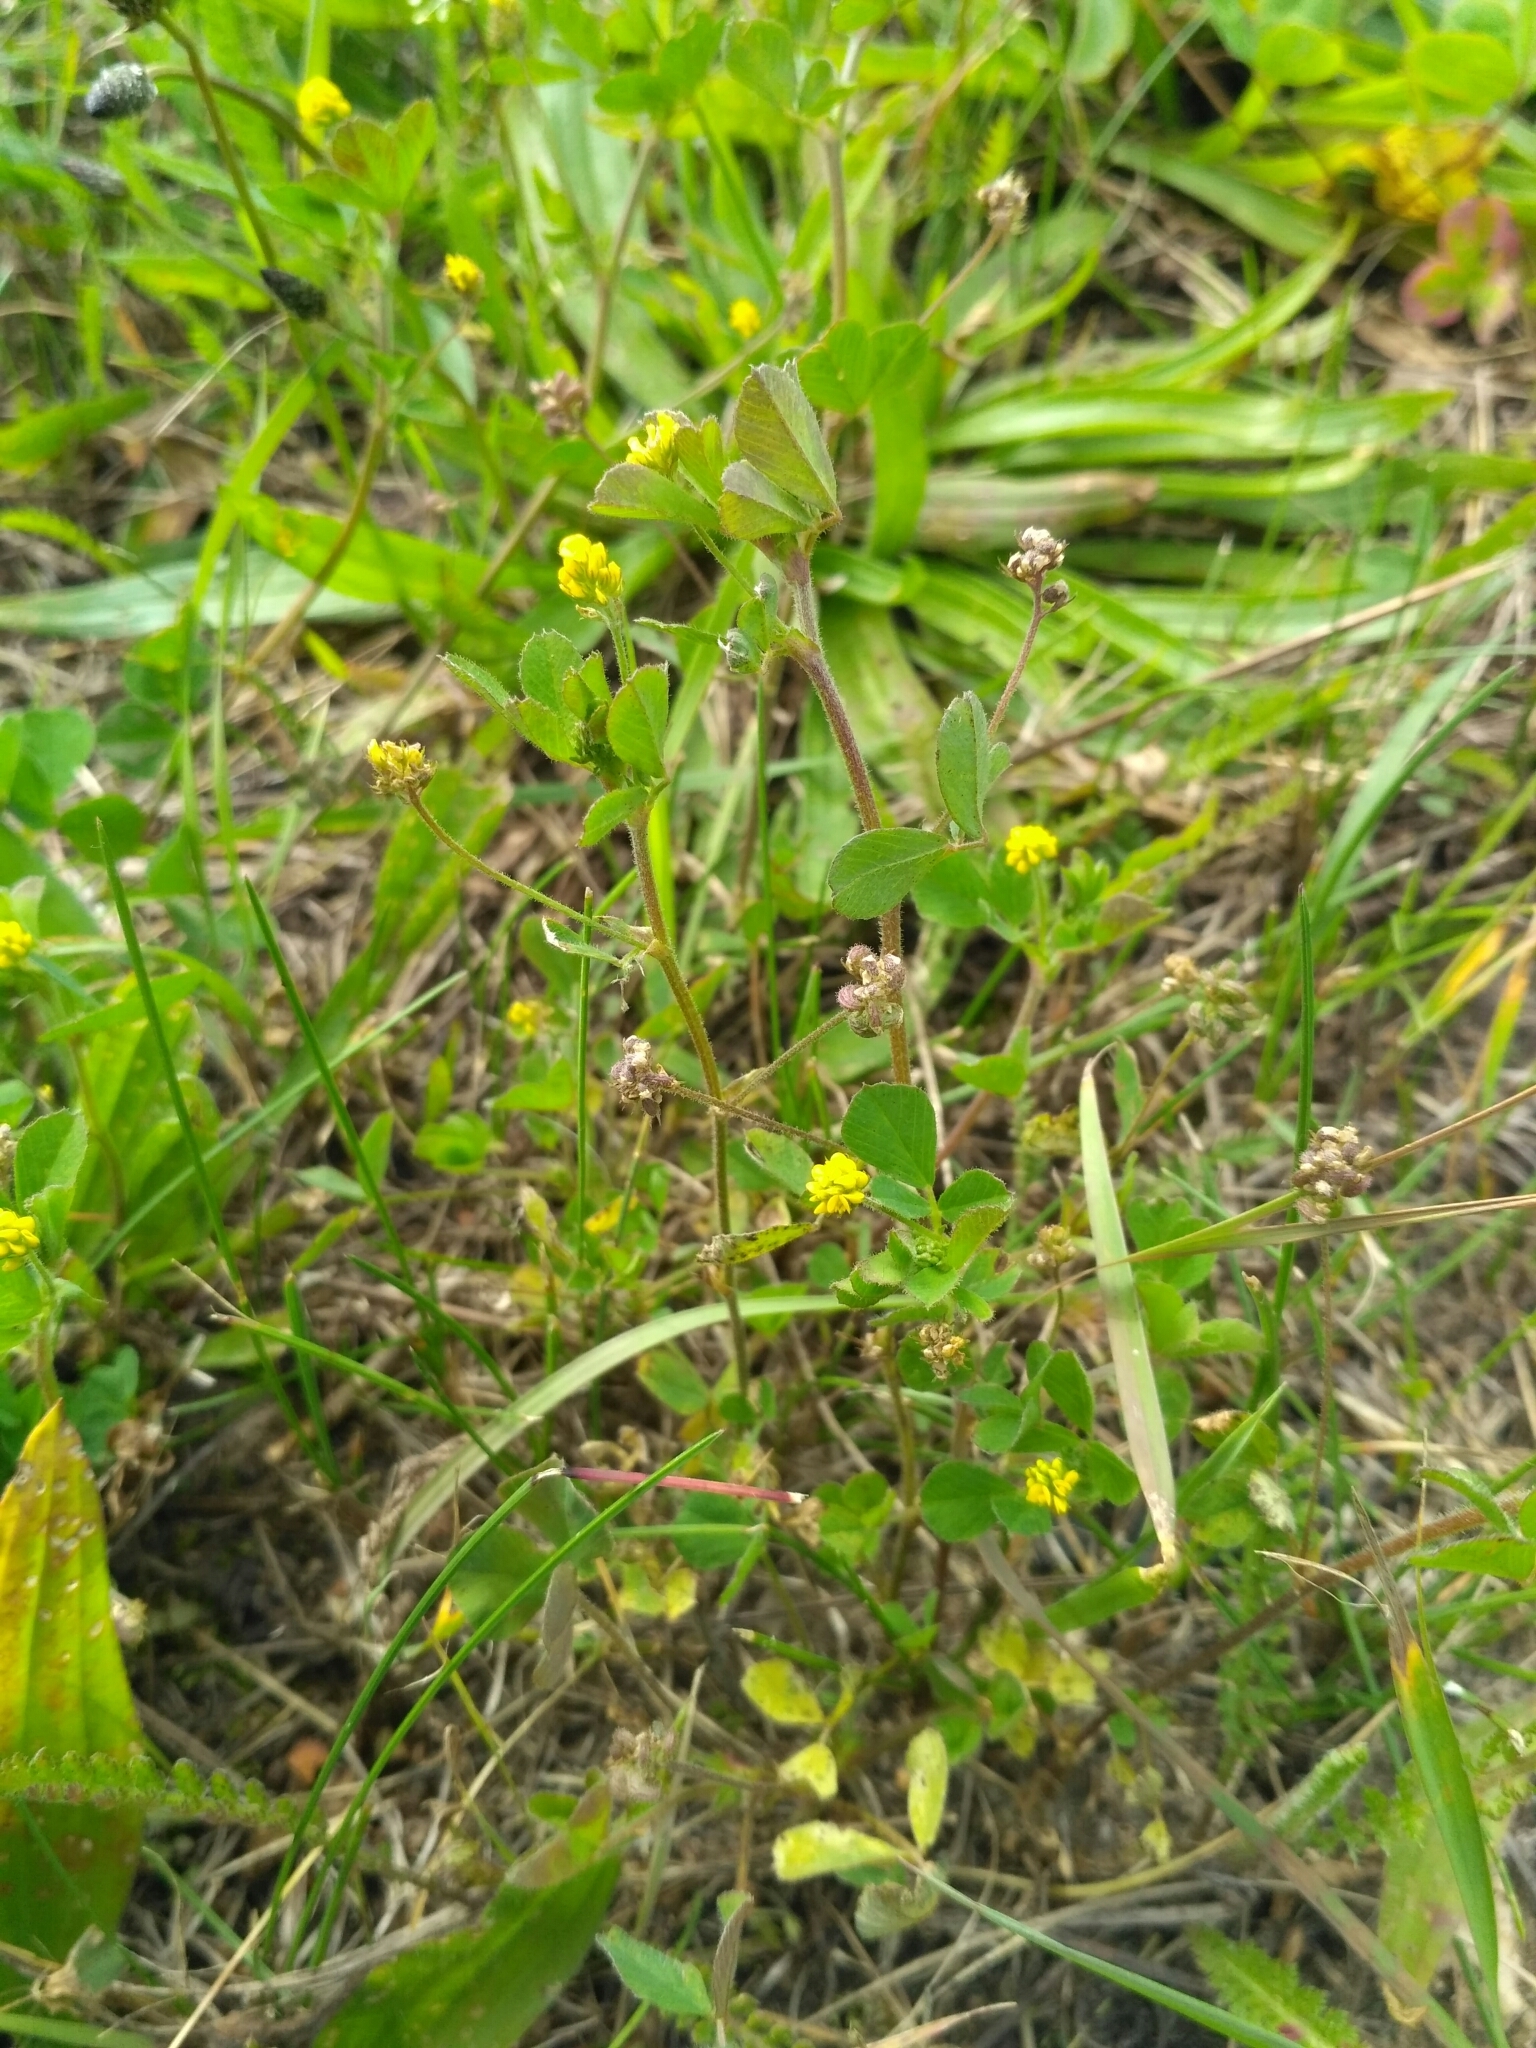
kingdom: Plantae
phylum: Tracheophyta
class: Magnoliopsida
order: Fabales
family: Fabaceae
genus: Medicago
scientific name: Medicago lupulina
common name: Black medick
